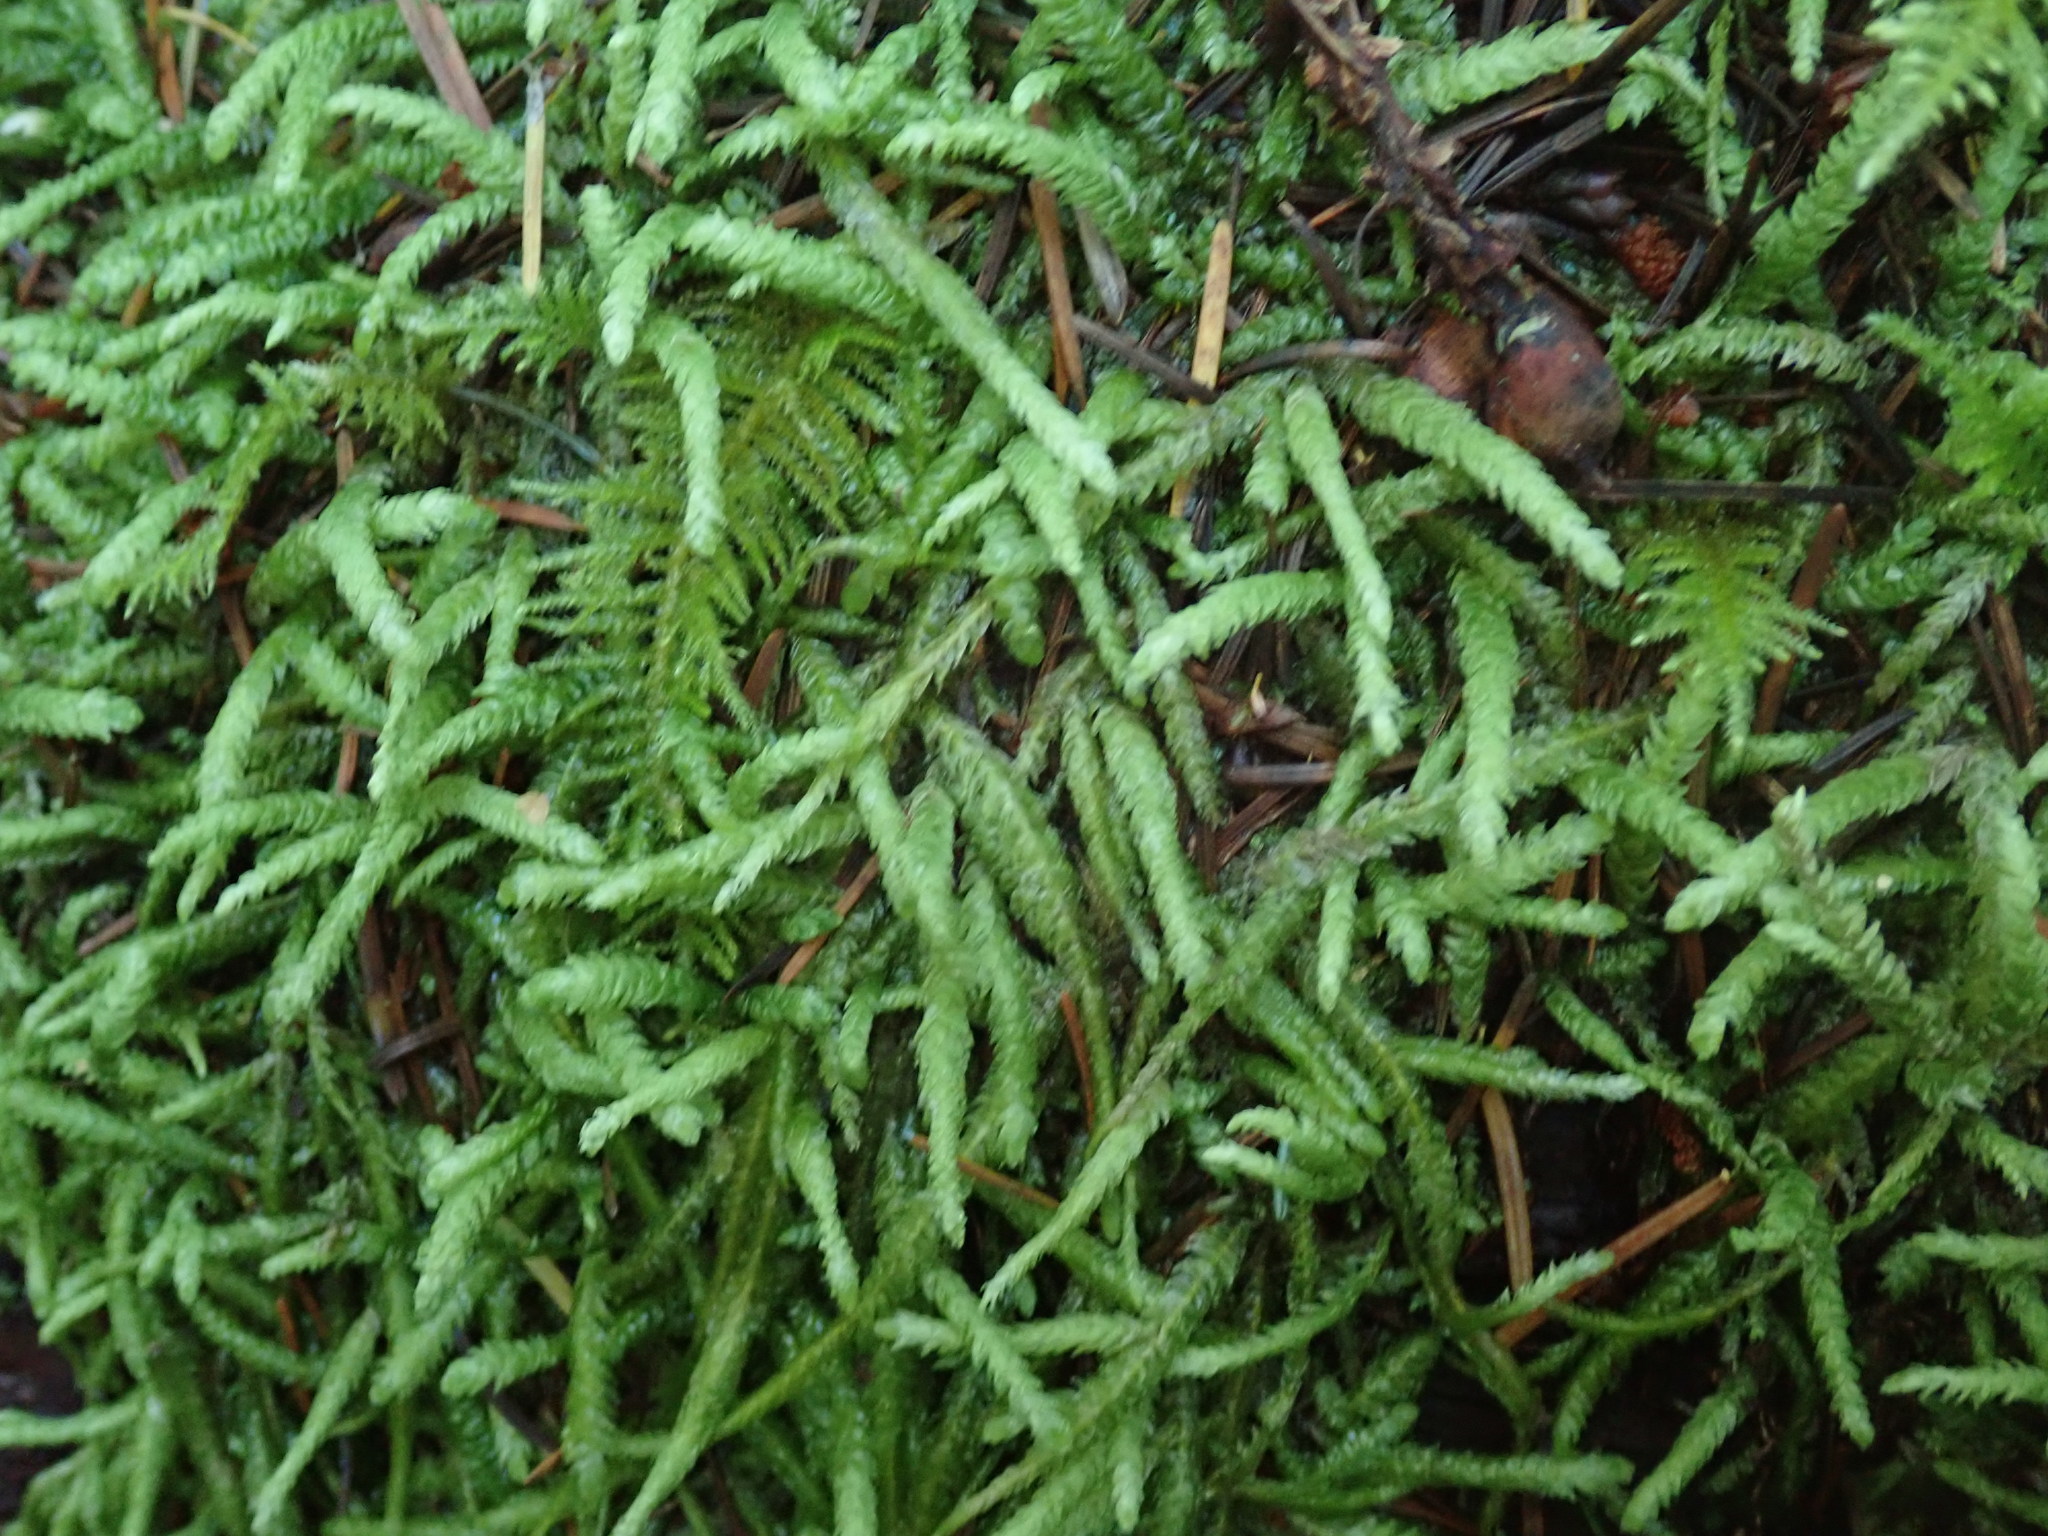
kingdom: Plantae
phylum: Bryophyta
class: Bryopsida
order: Hypnales
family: Plagiotheciaceae
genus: Plagiothecium
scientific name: Plagiothecium undulatum
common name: Waved silk-moss
